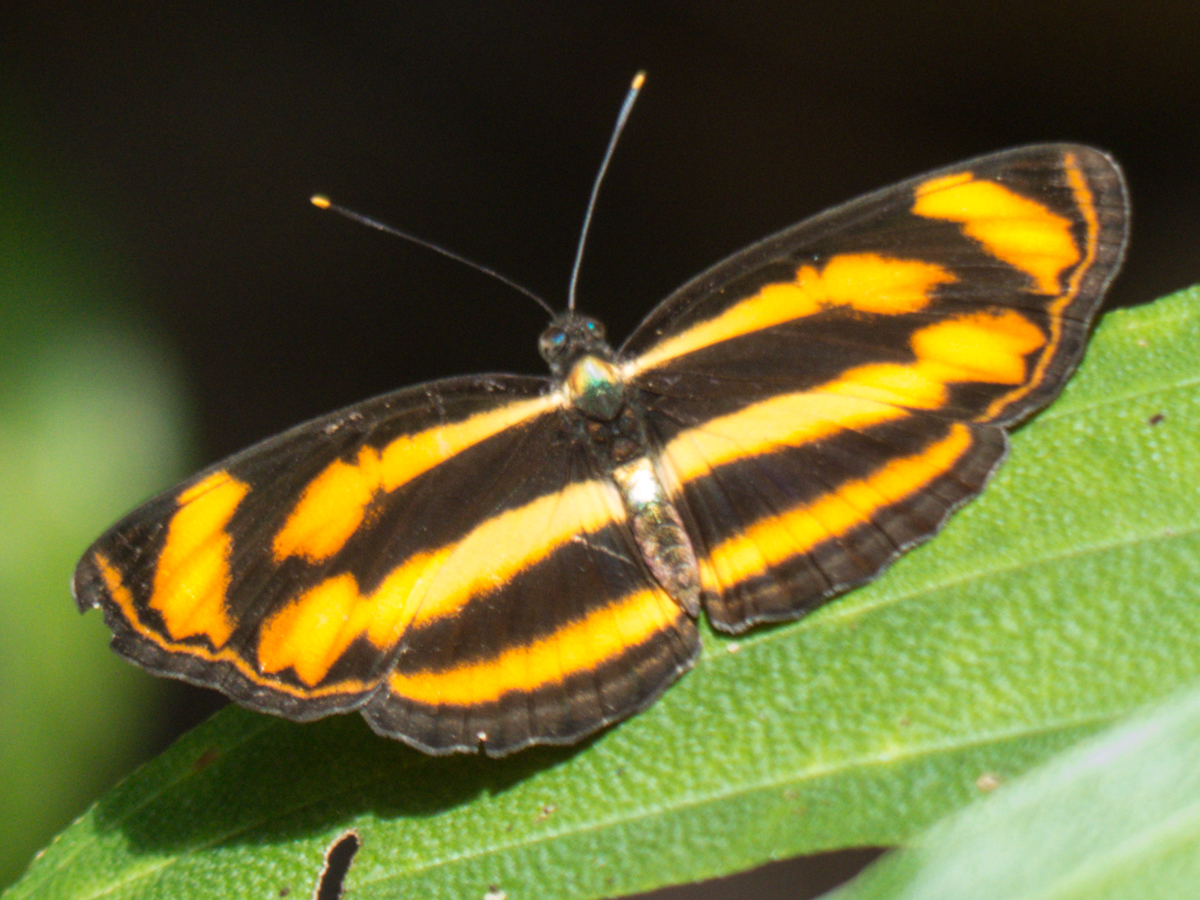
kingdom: Animalia
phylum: Arthropoda
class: Insecta
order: Lepidoptera
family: Nymphalidae
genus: Lasippa
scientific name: Lasippa
